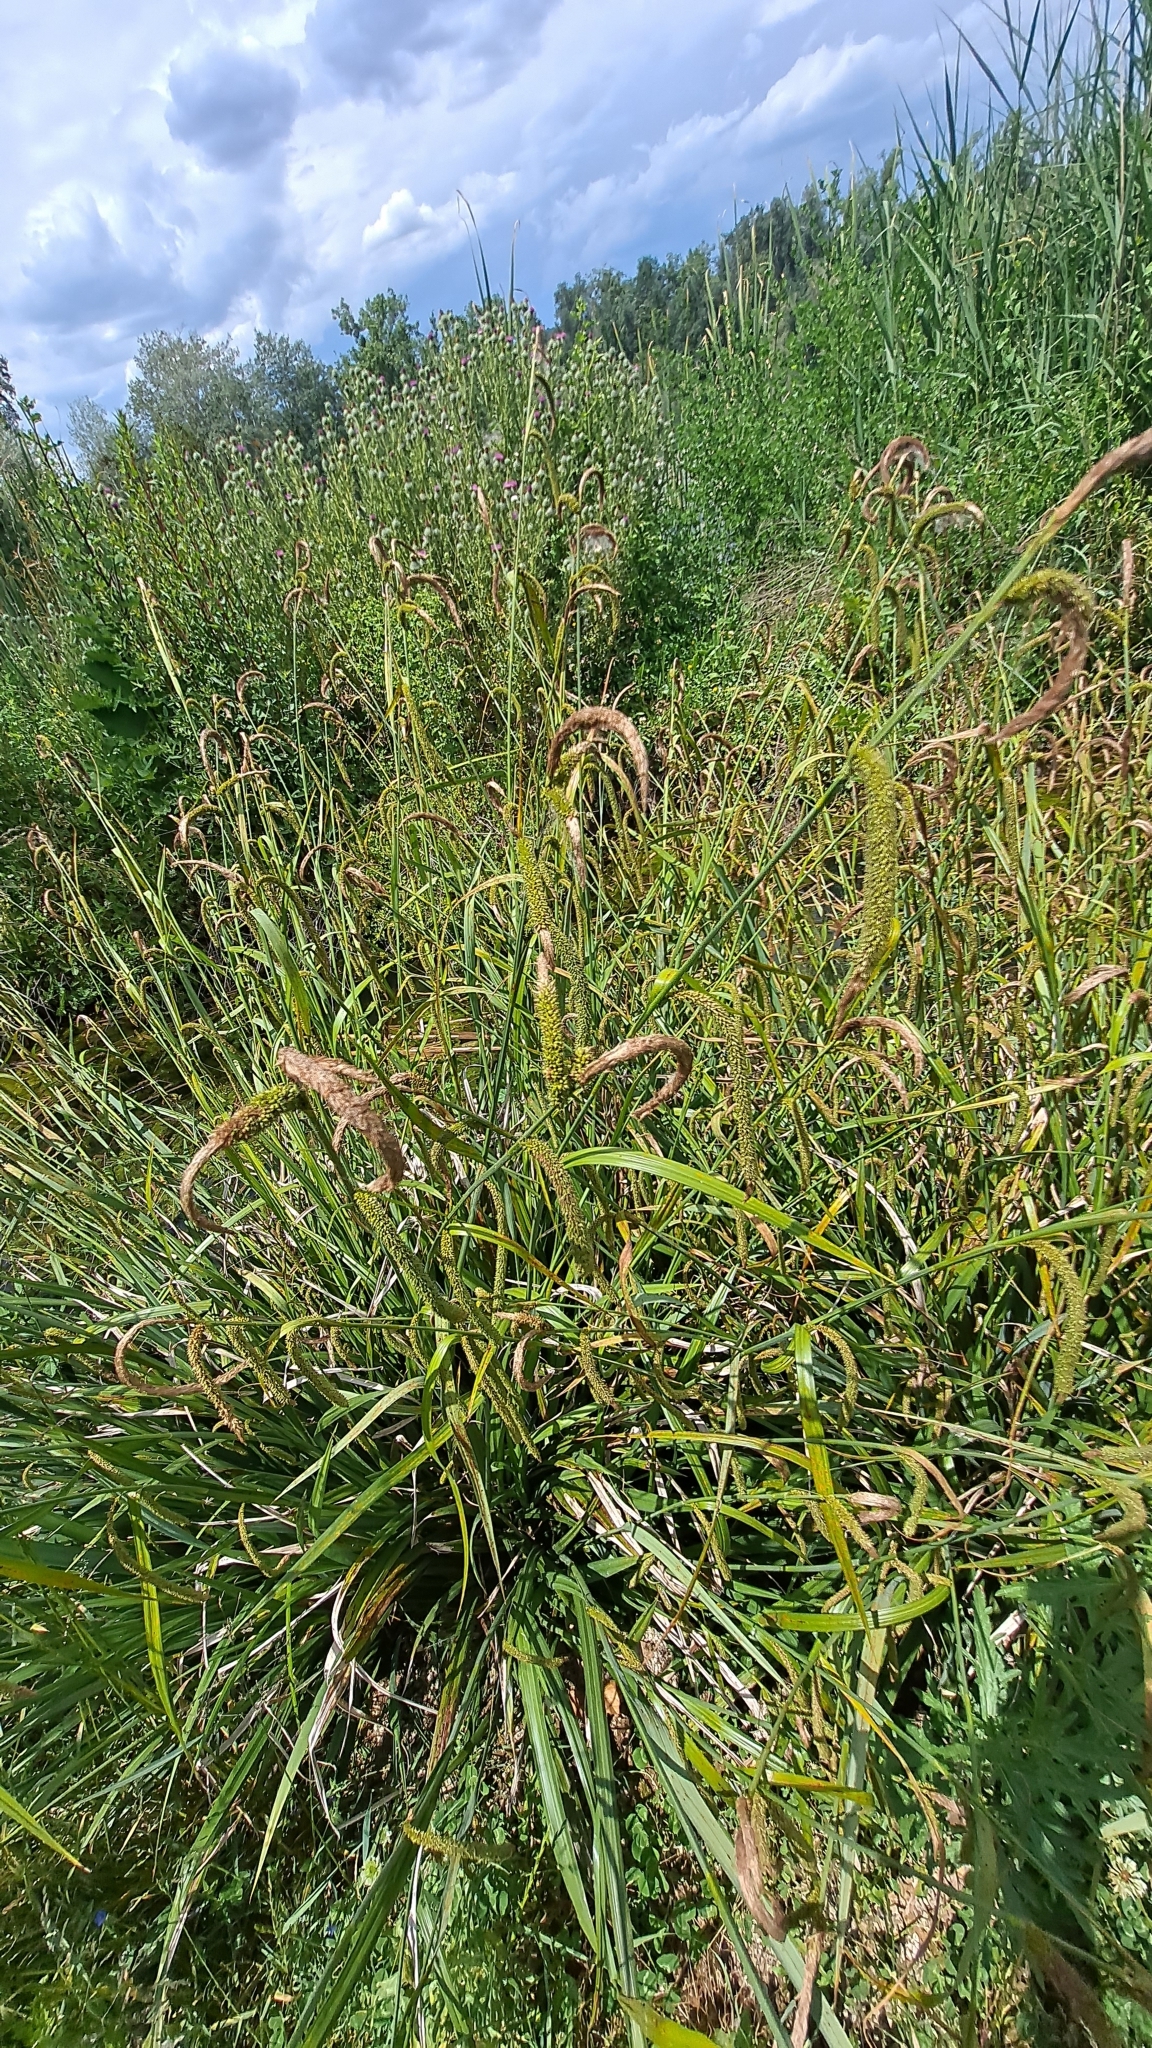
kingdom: Plantae
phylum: Tracheophyta
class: Liliopsida
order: Poales
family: Cyperaceae
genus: Carex
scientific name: Carex pendula
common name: Pendulous sedge
